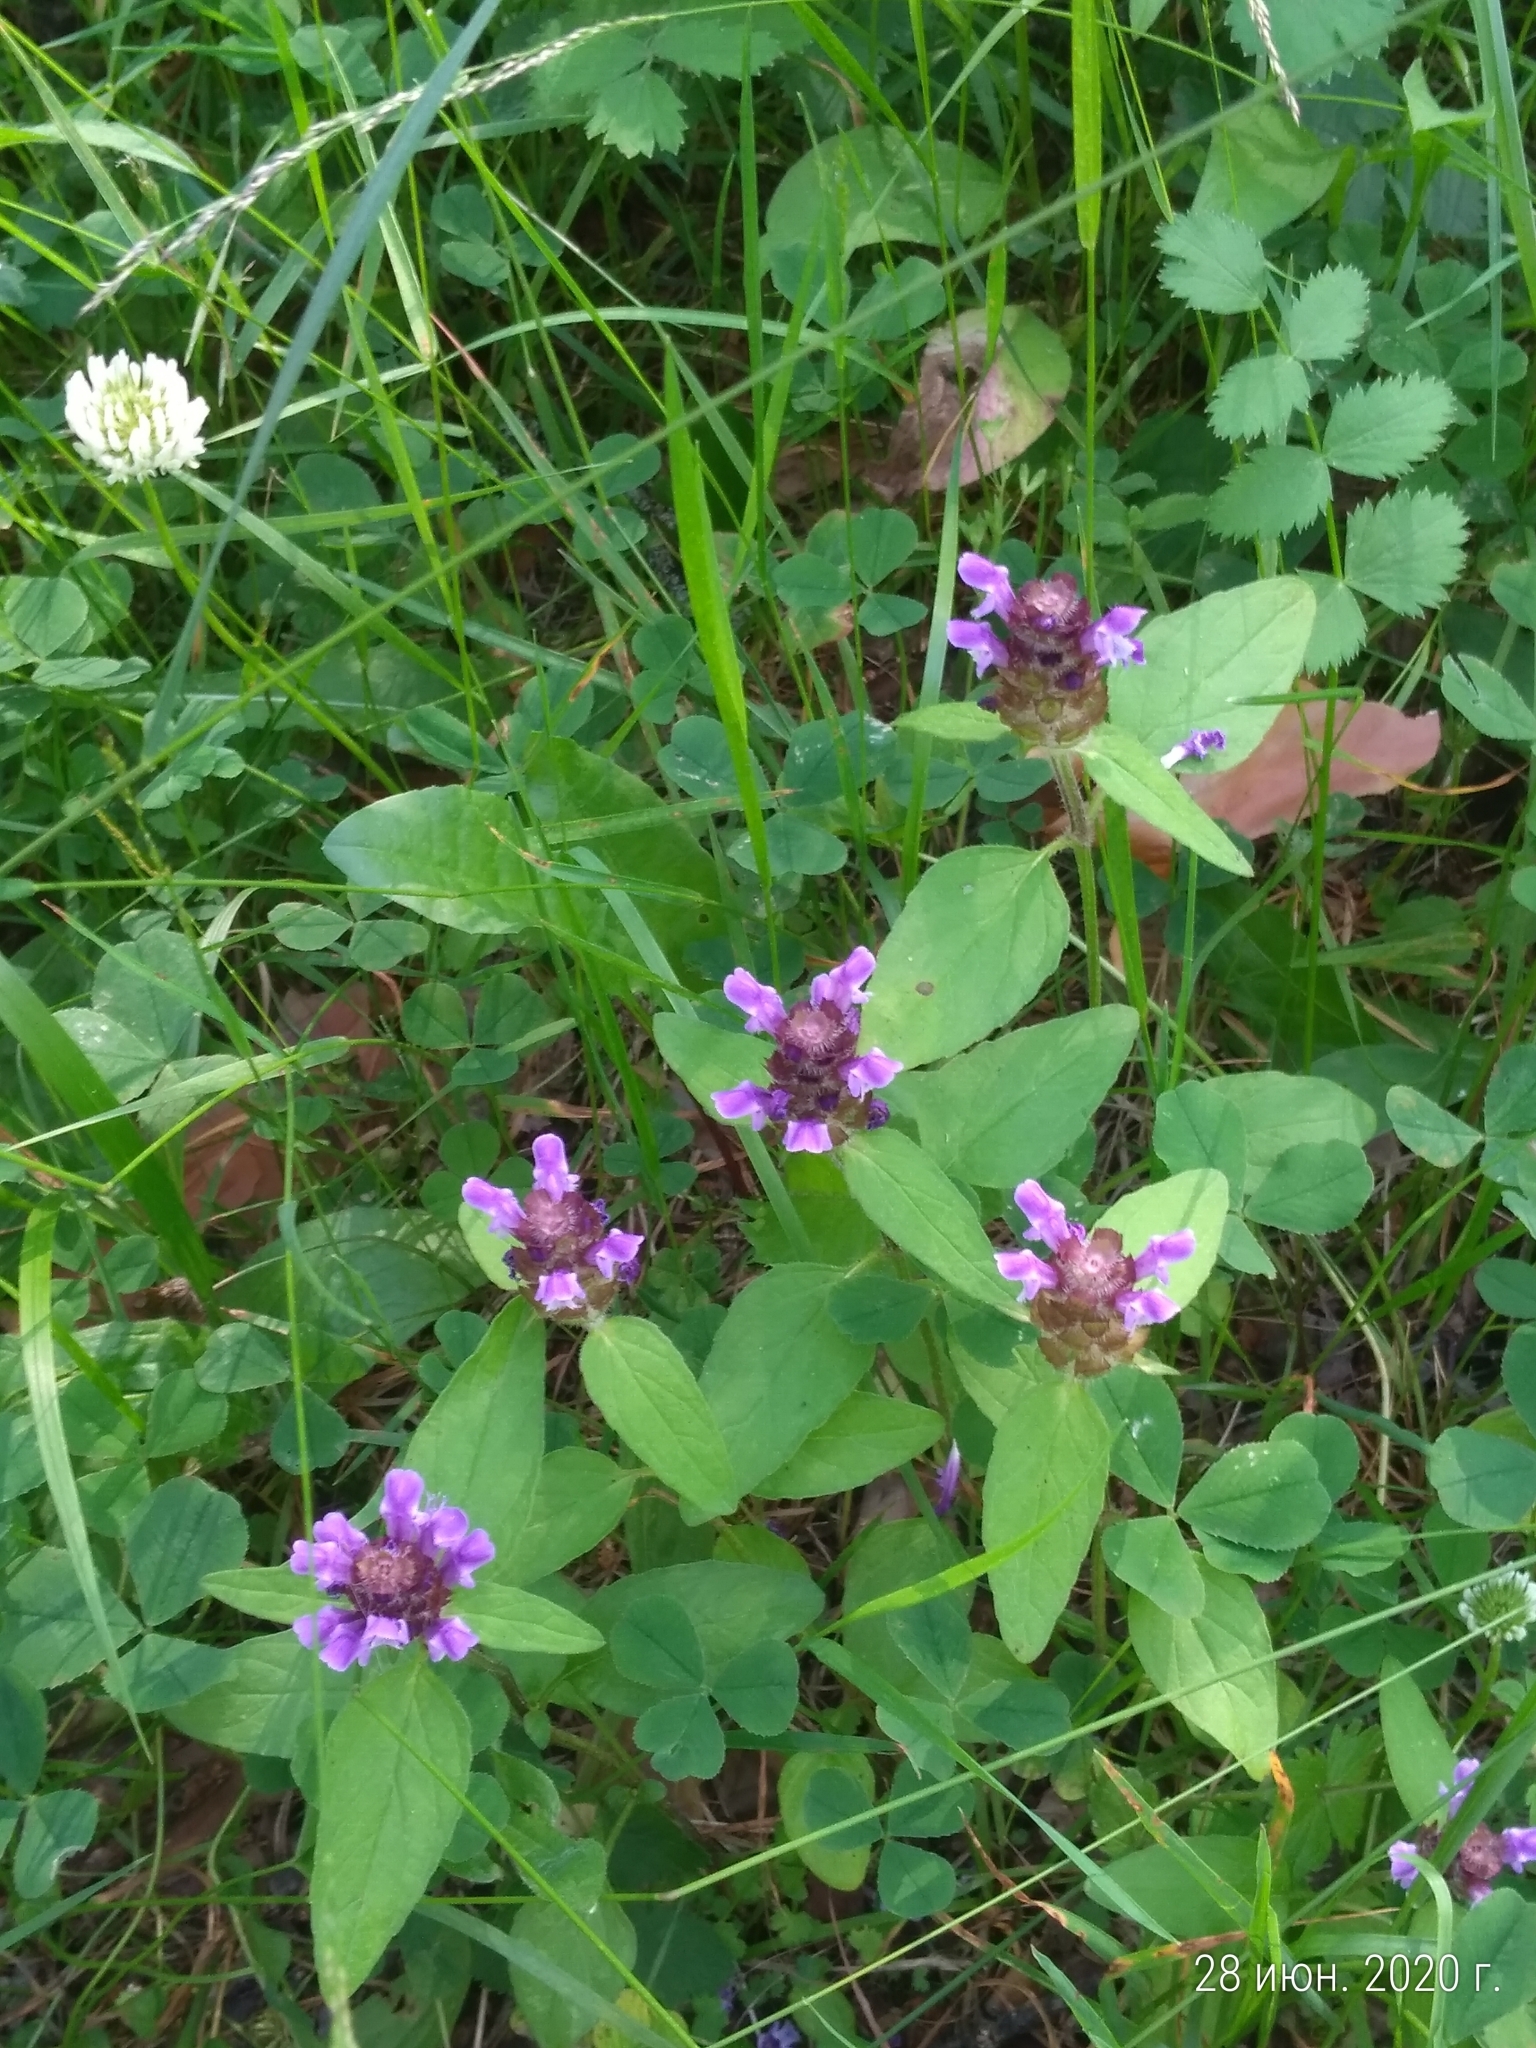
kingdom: Plantae
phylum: Tracheophyta
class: Magnoliopsida
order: Lamiales
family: Lamiaceae
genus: Prunella
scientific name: Prunella vulgaris
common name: Heal-all
